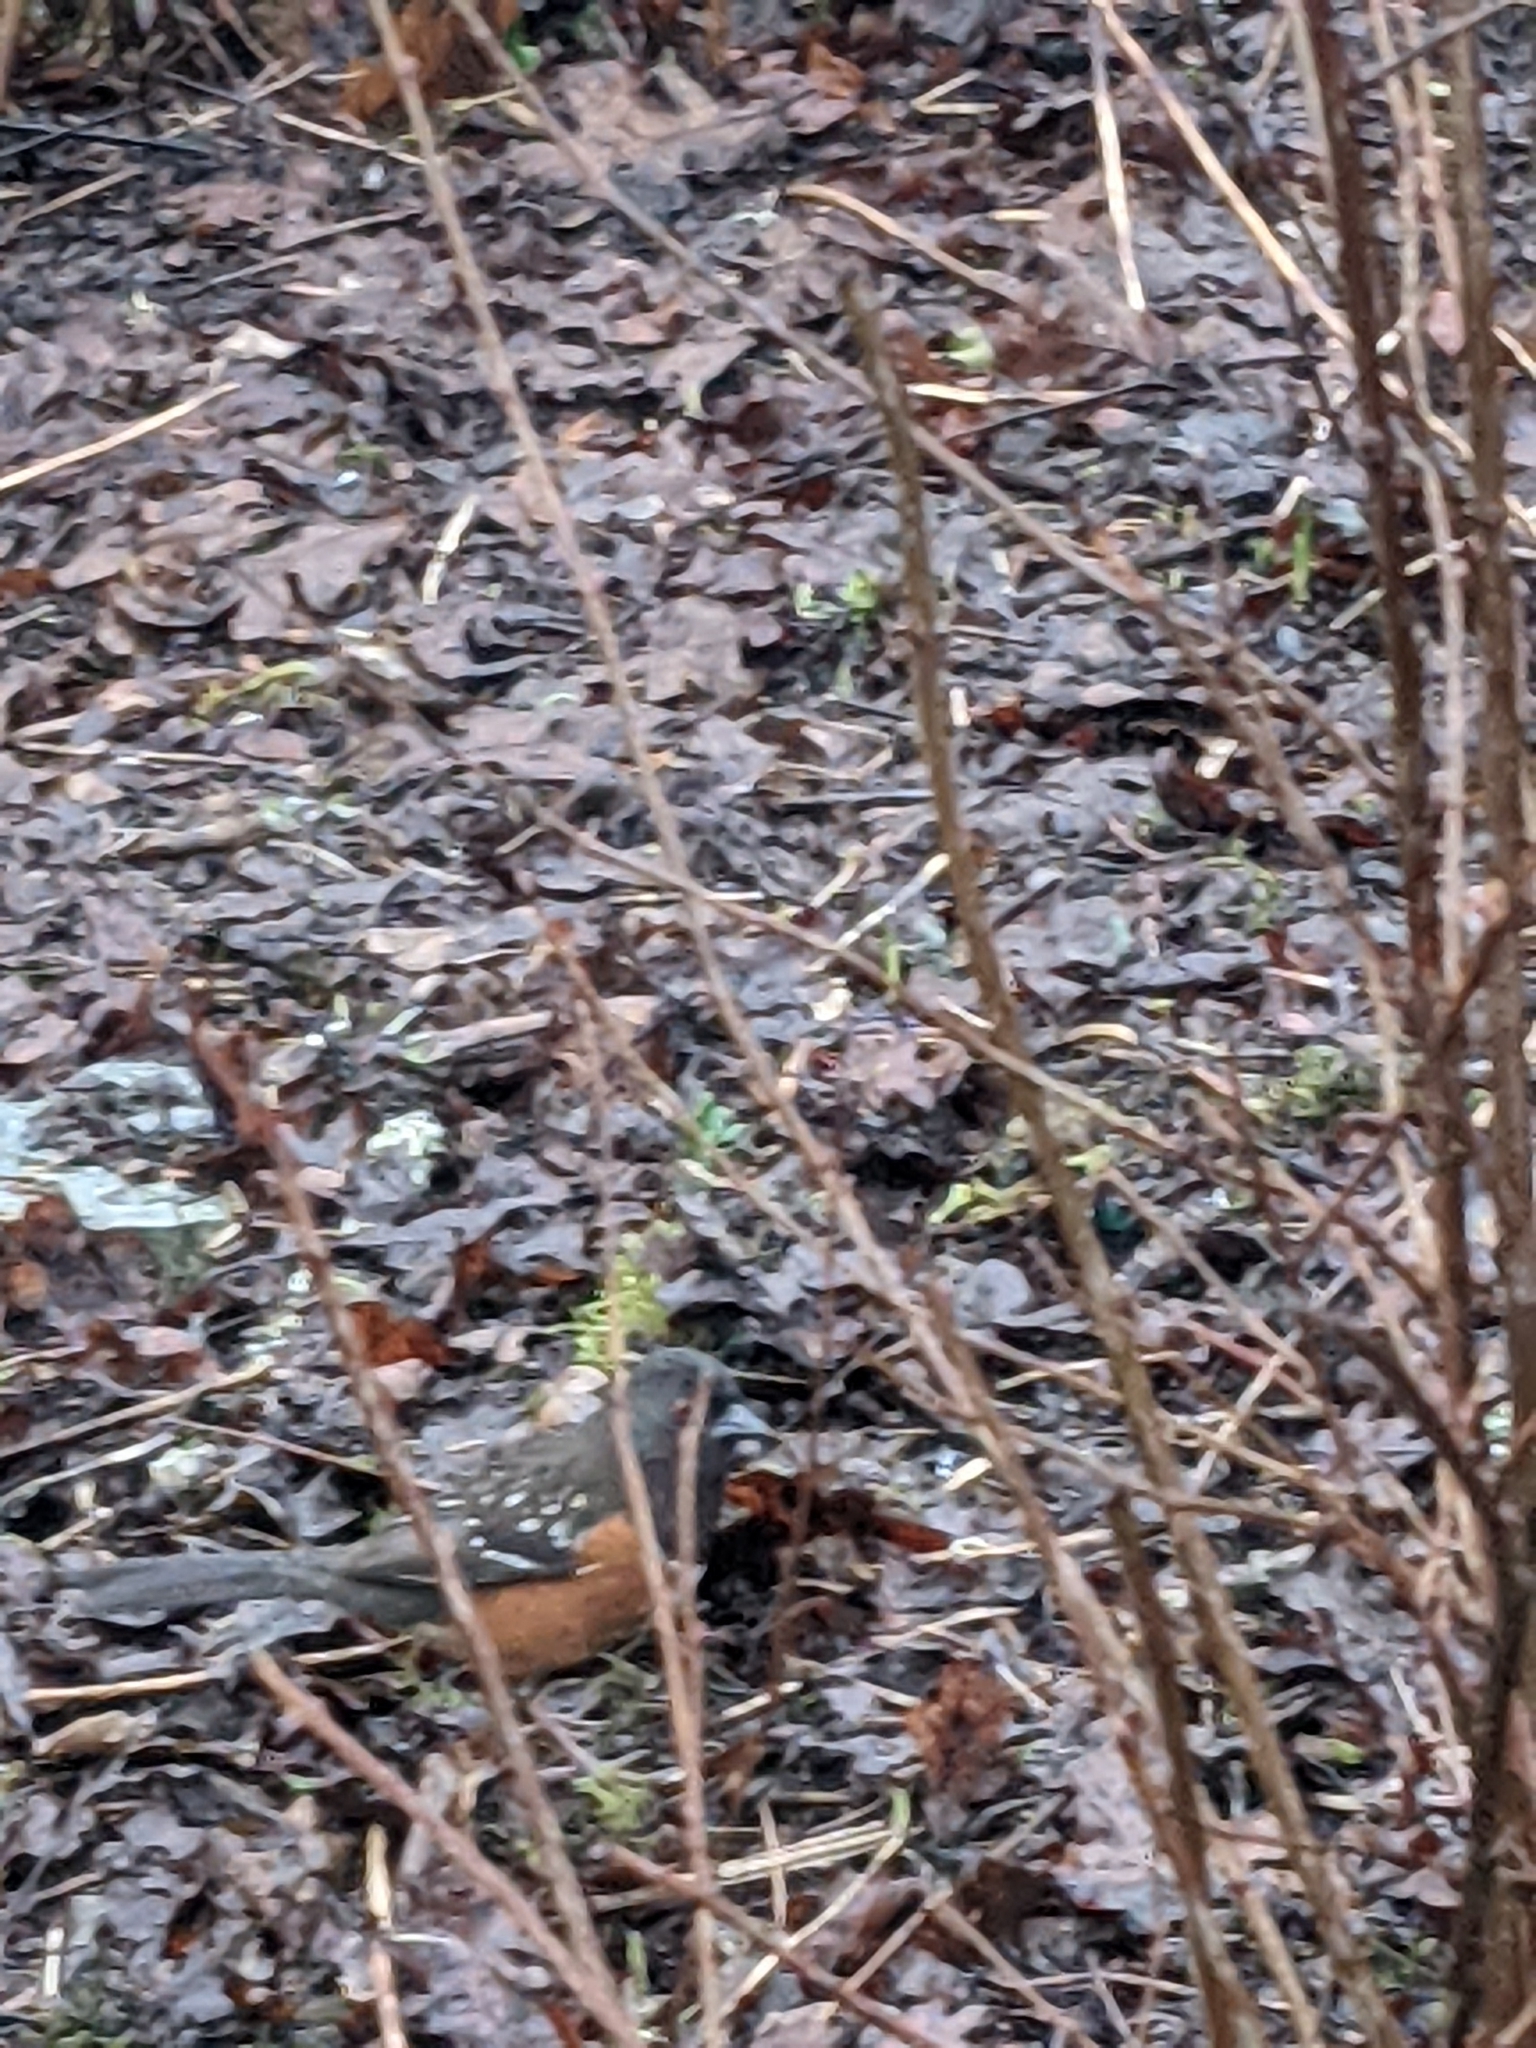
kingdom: Animalia
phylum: Chordata
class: Aves
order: Passeriformes
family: Passerellidae
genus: Pipilo
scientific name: Pipilo maculatus
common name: Spotted towhee
